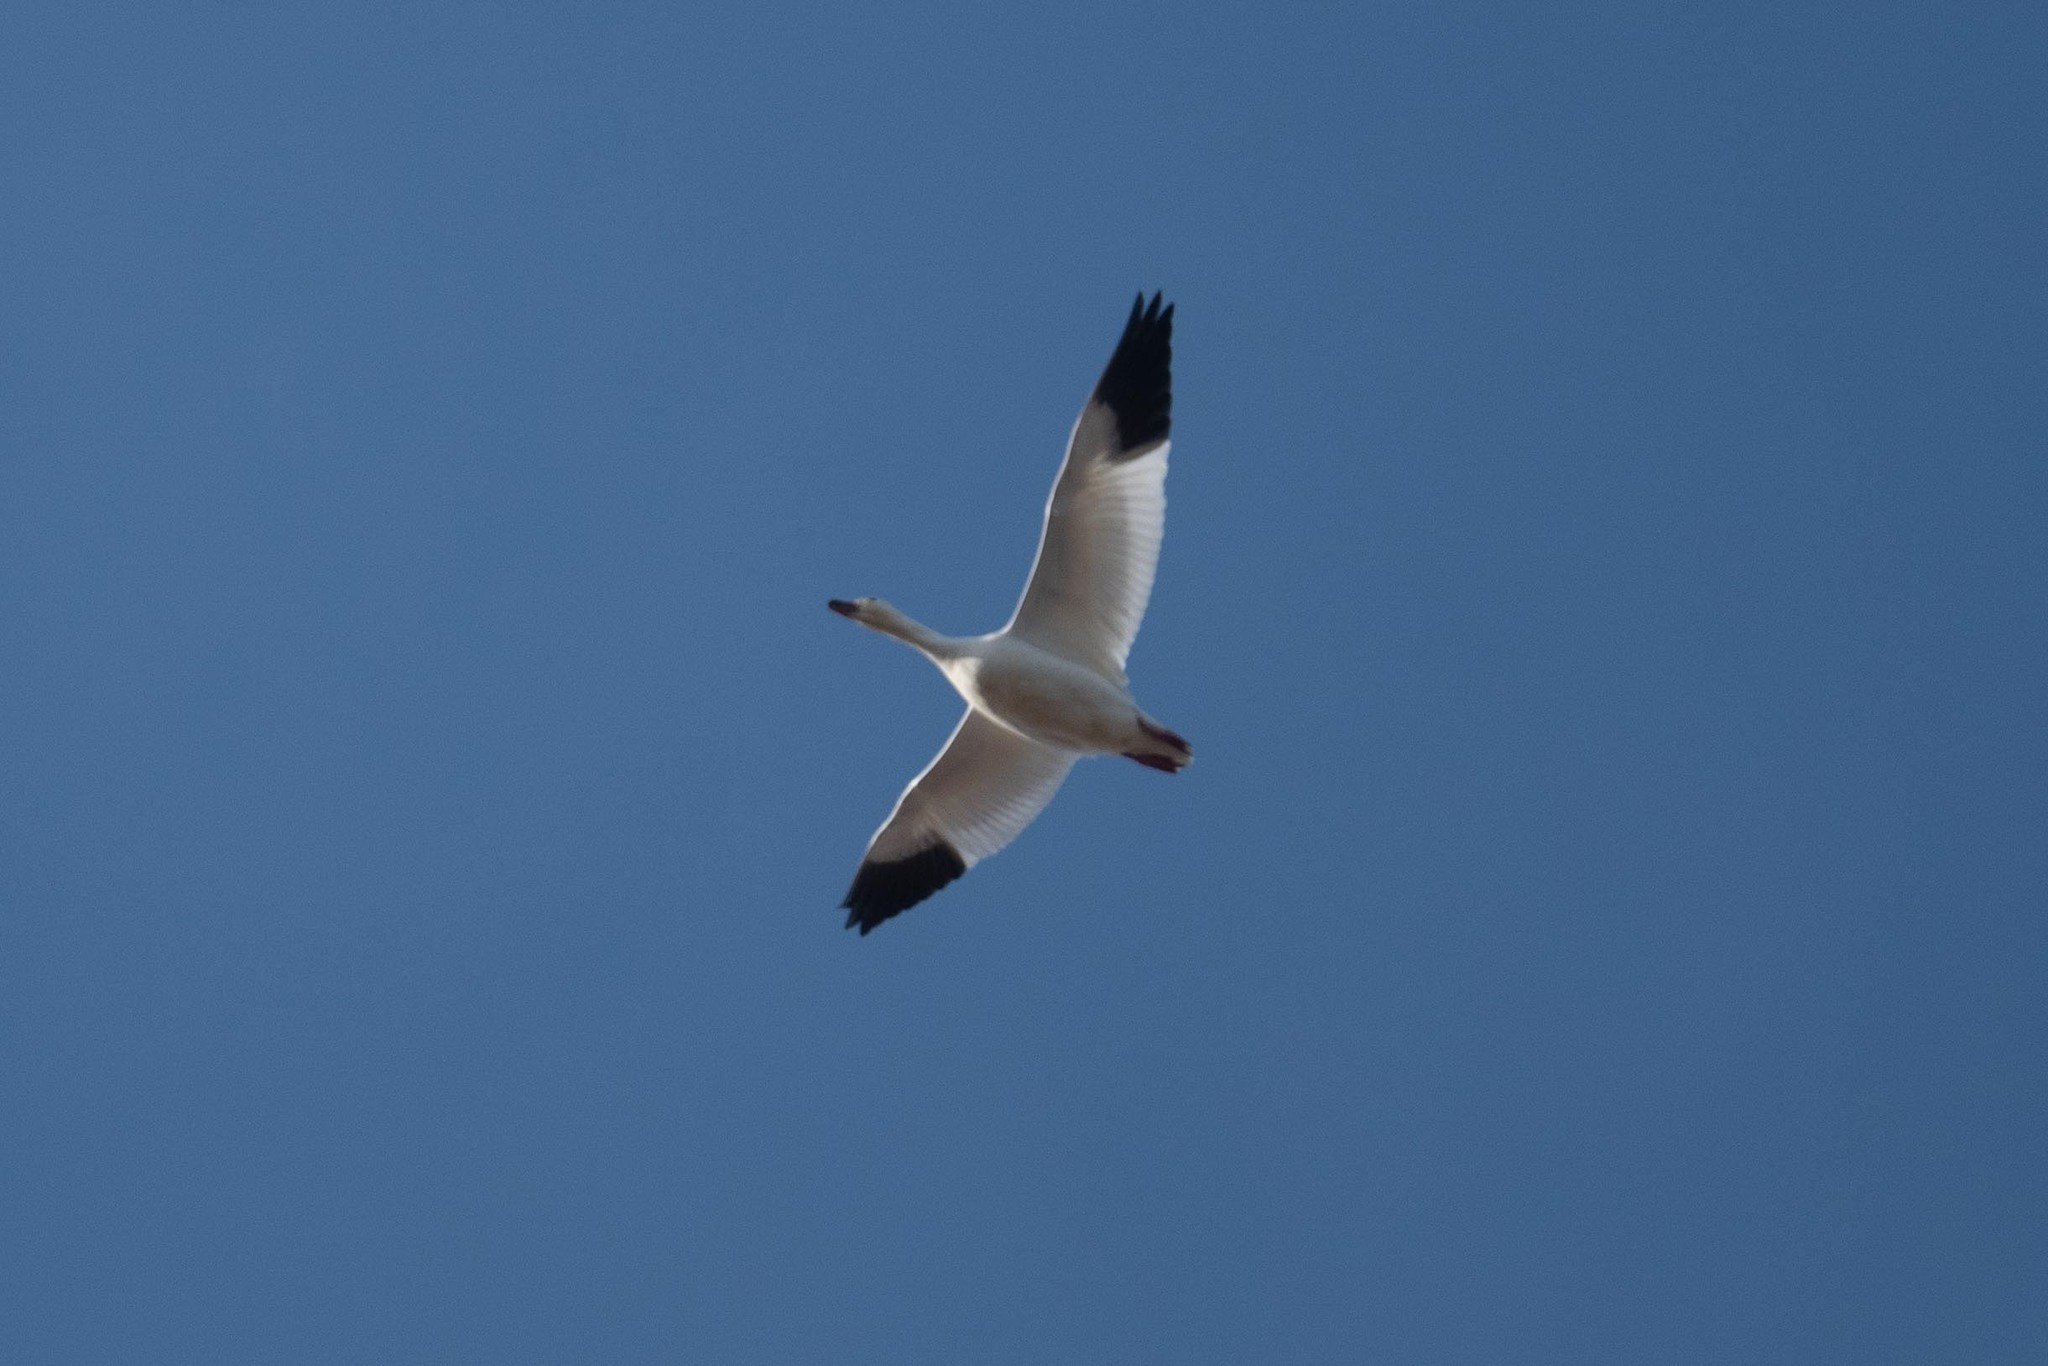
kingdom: Animalia
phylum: Chordata
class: Aves
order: Anseriformes
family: Anatidae
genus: Anser
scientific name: Anser caerulescens
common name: Snow goose
